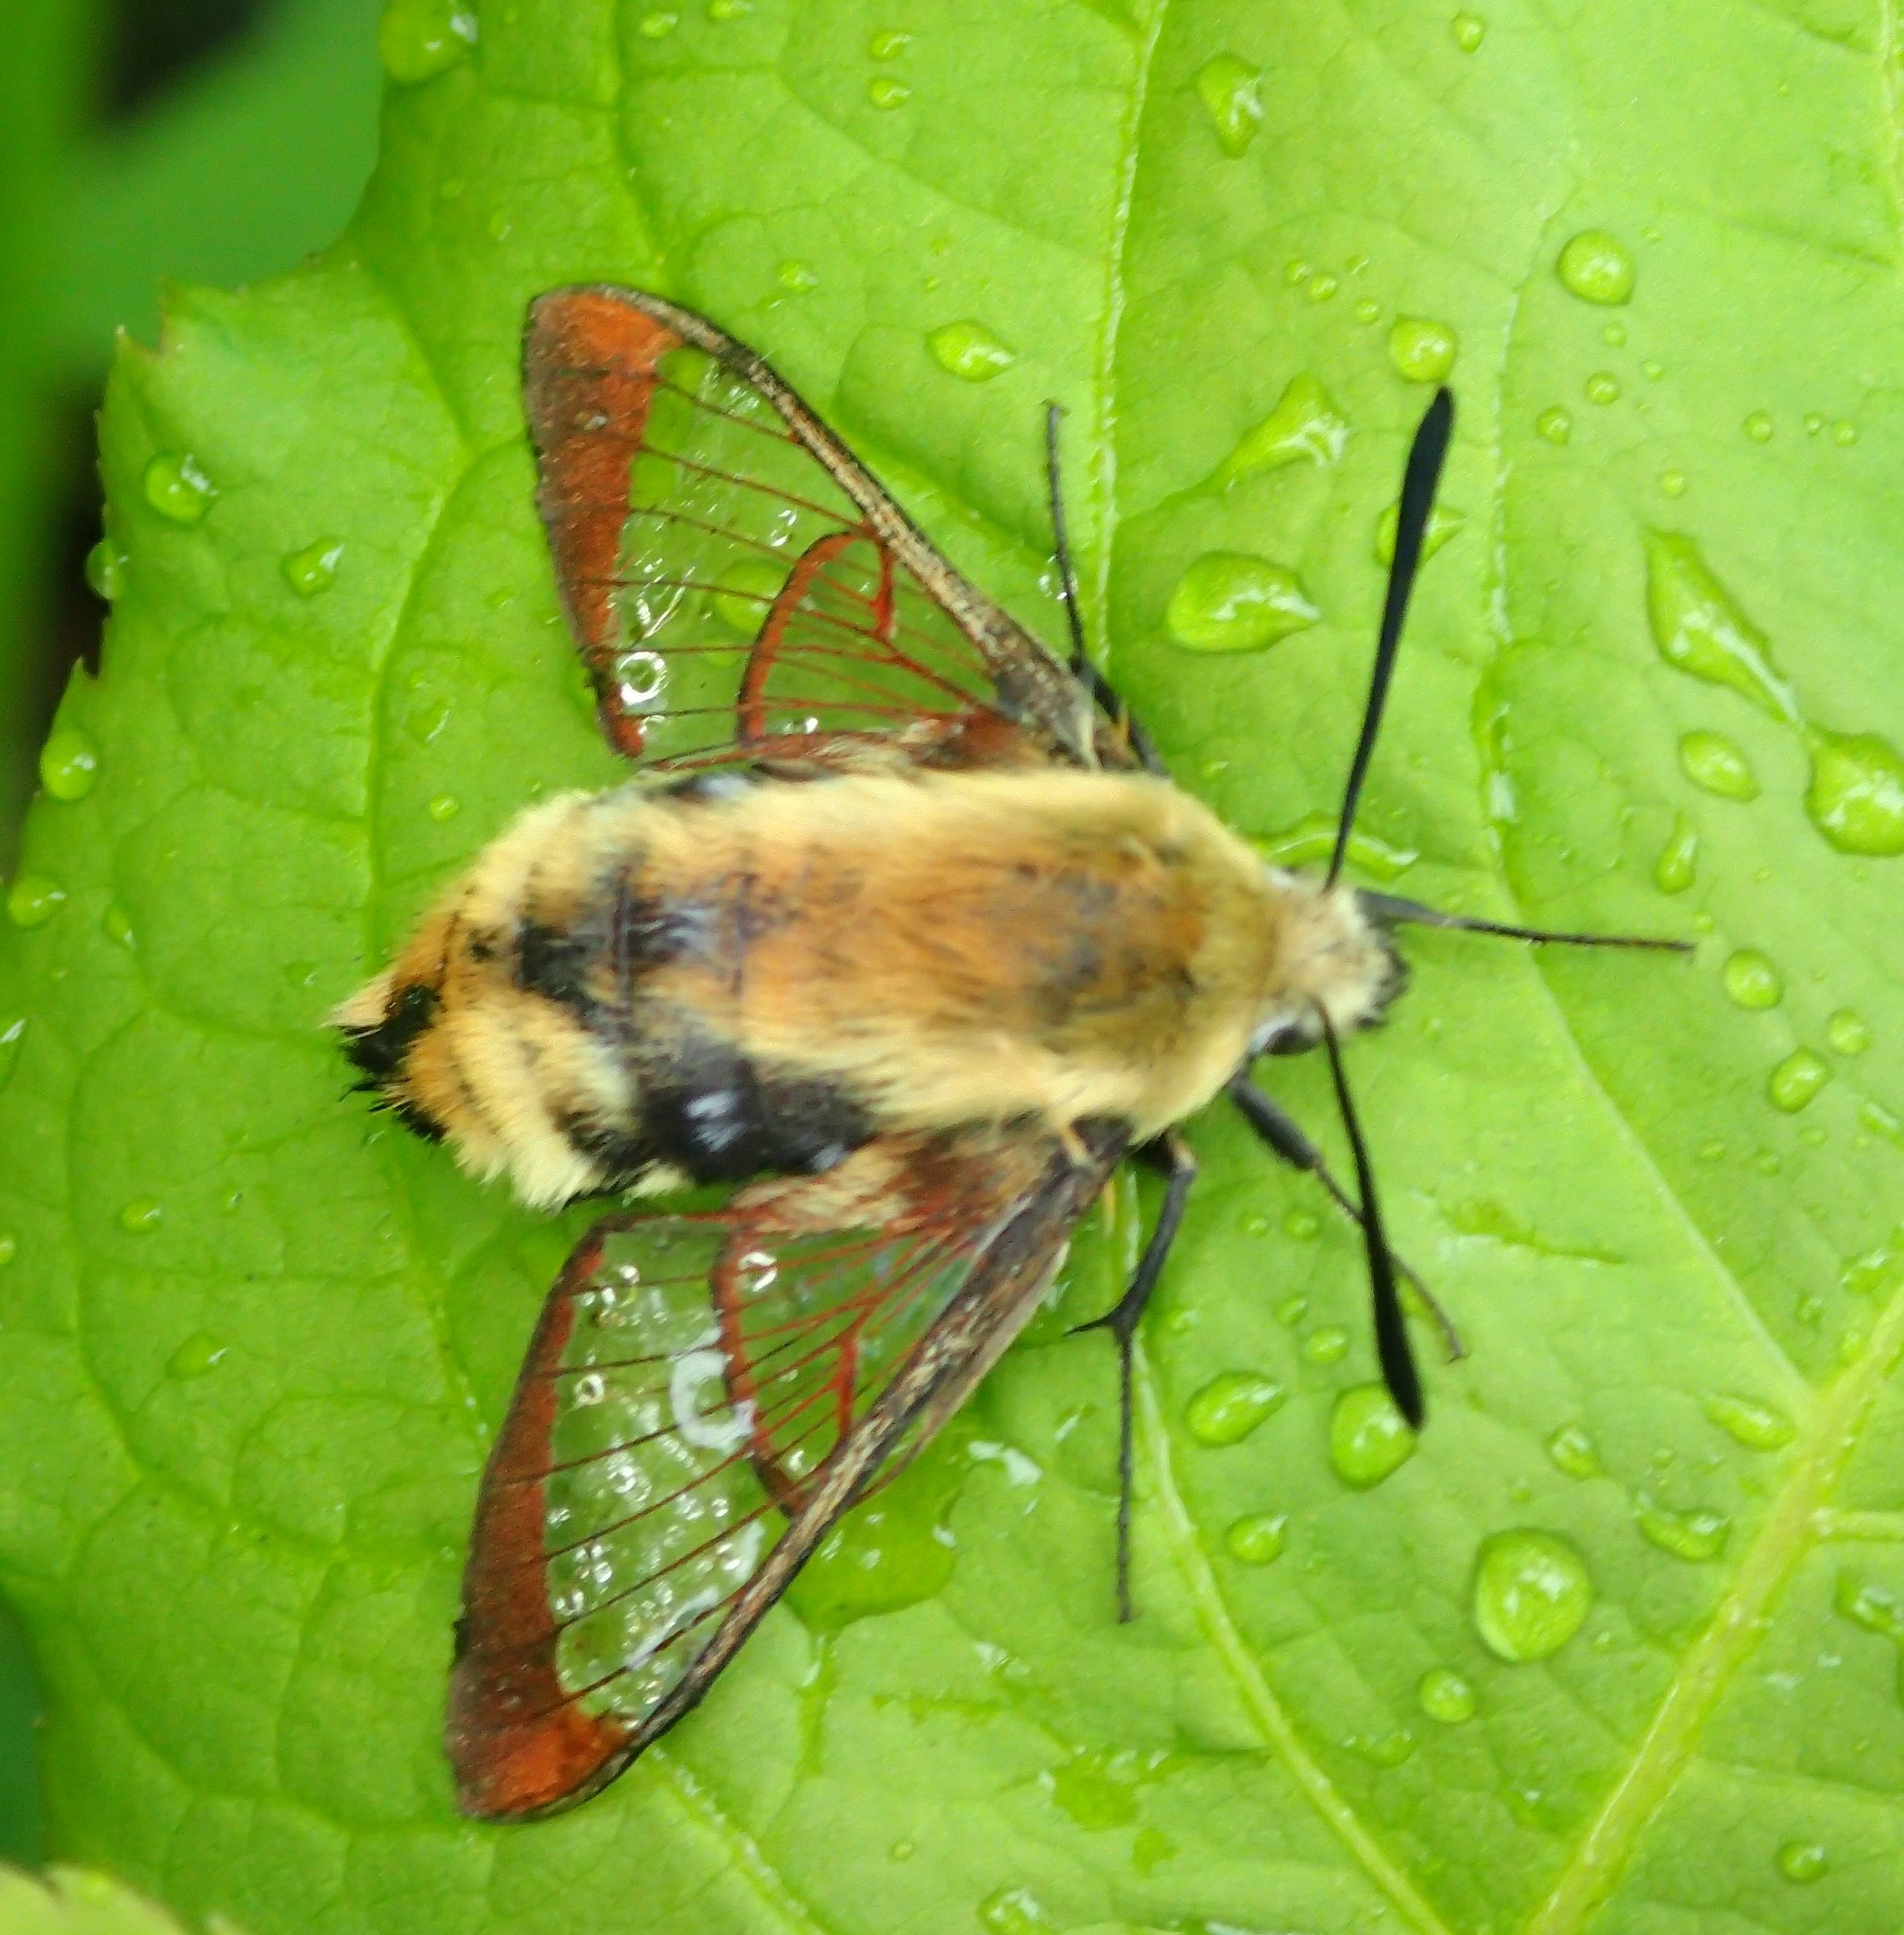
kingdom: Animalia
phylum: Arthropoda
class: Insecta
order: Lepidoptera
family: Sphingidae
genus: Hemaris
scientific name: Hemaris diffinis
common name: Bumblebee moth
